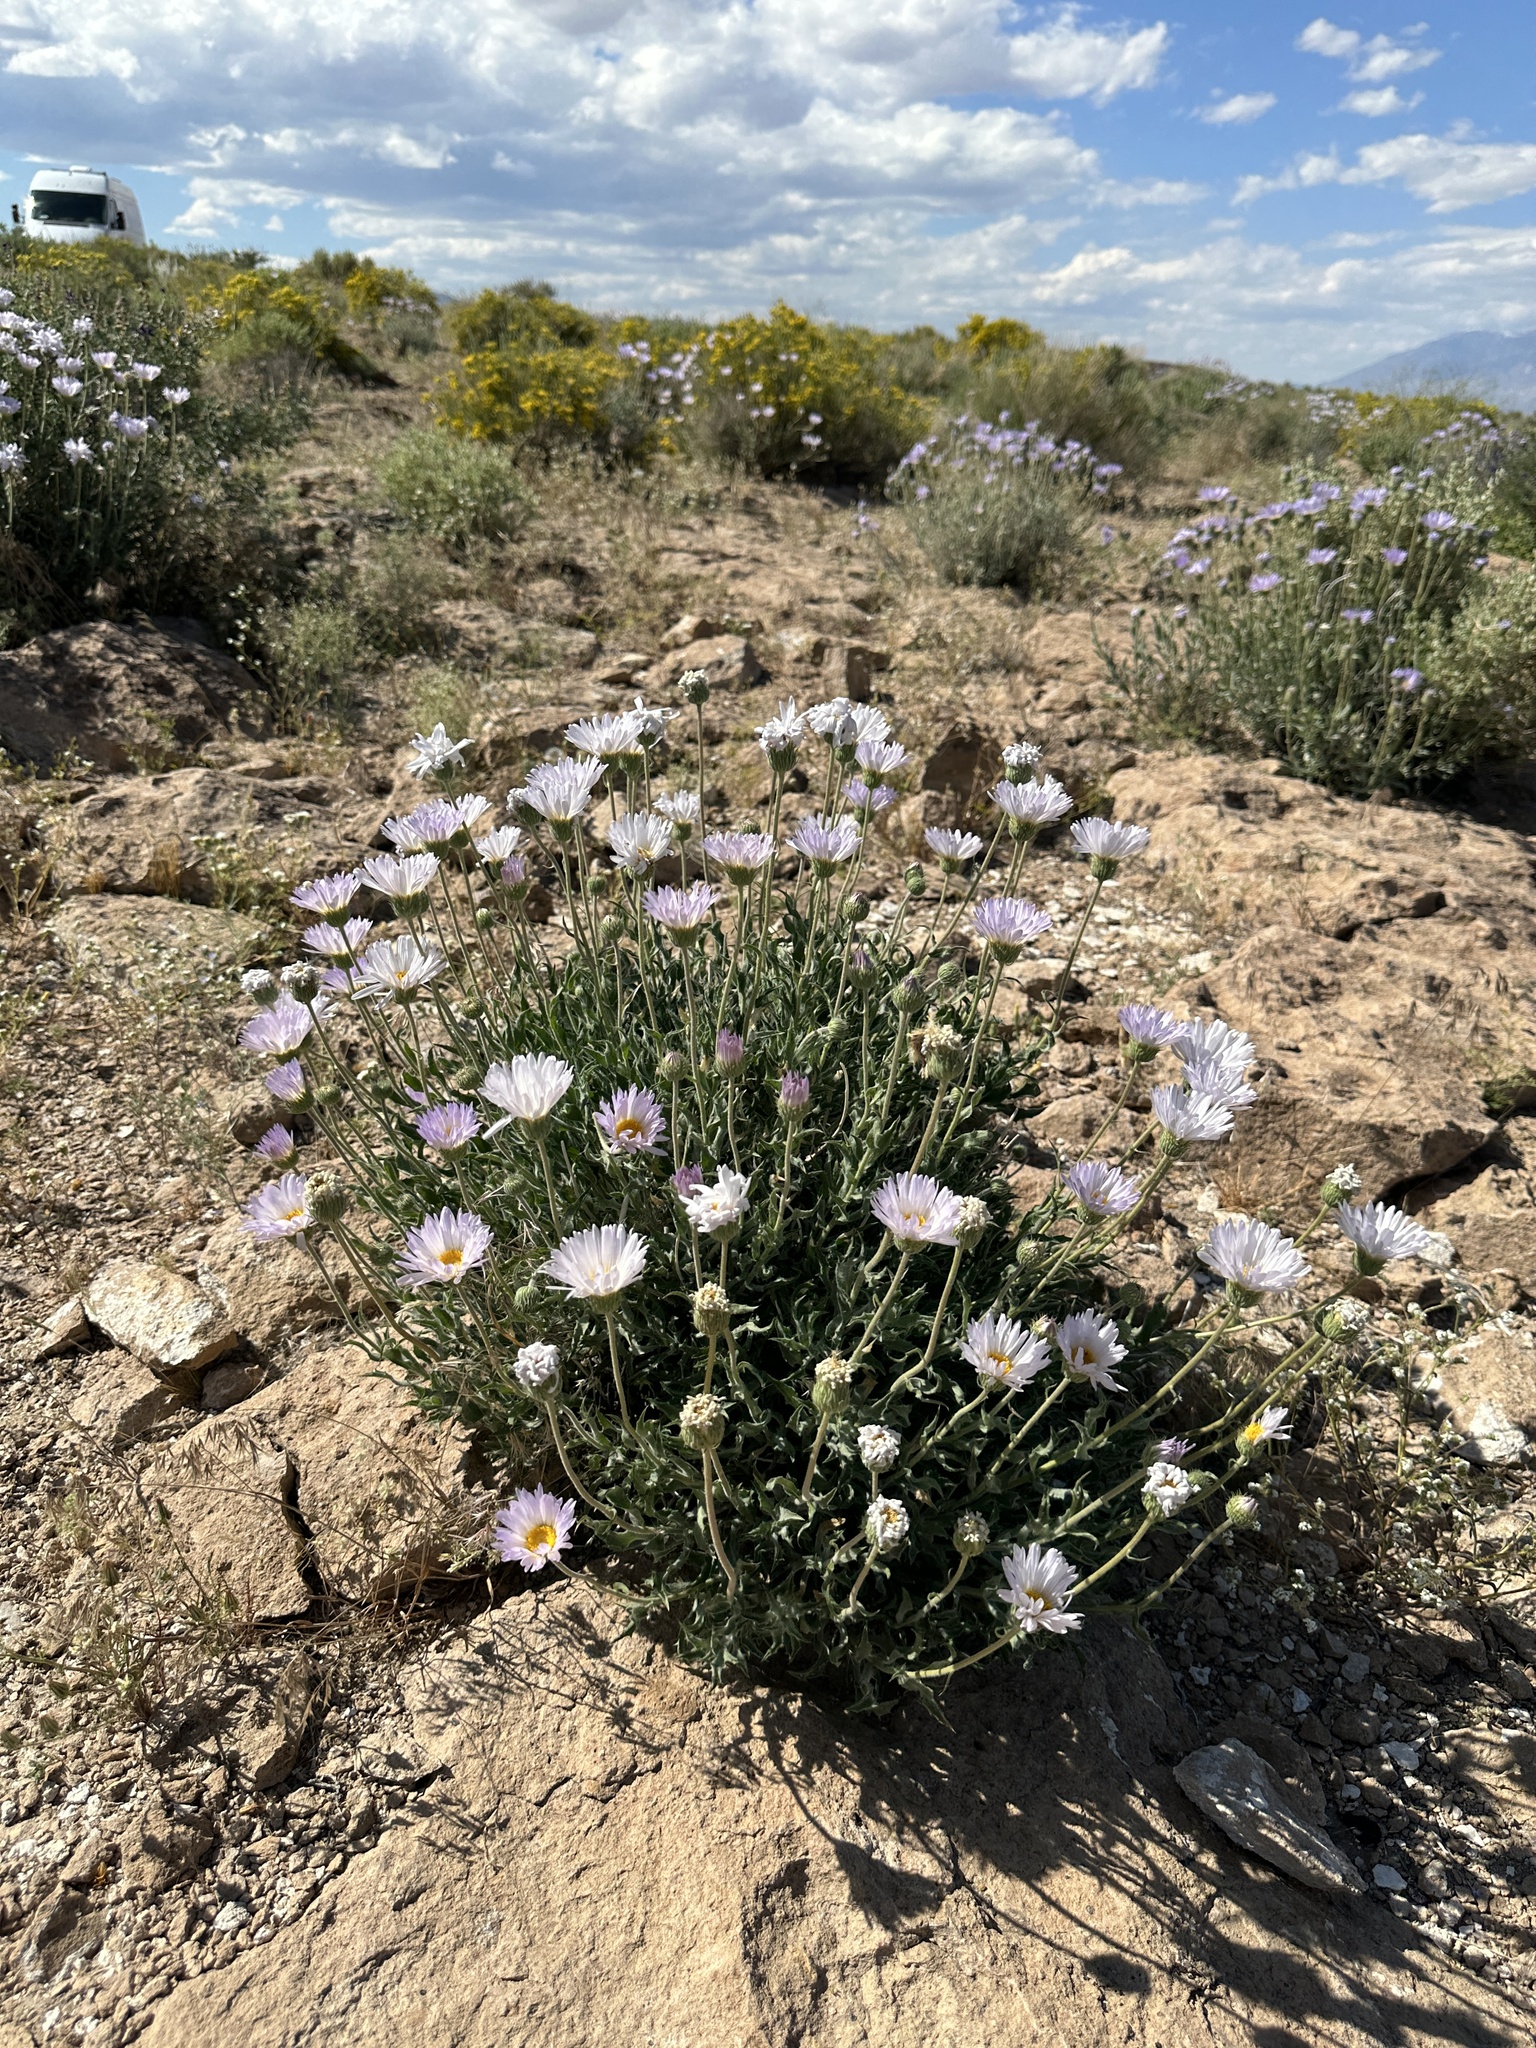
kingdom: Plantae
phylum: Tracheophyta
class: Magnoliopsida
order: Asterales
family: Asteraceae
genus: Xylorhiza
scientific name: Xylorhiza tortifolia
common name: Hurt-leaf woody-aster
